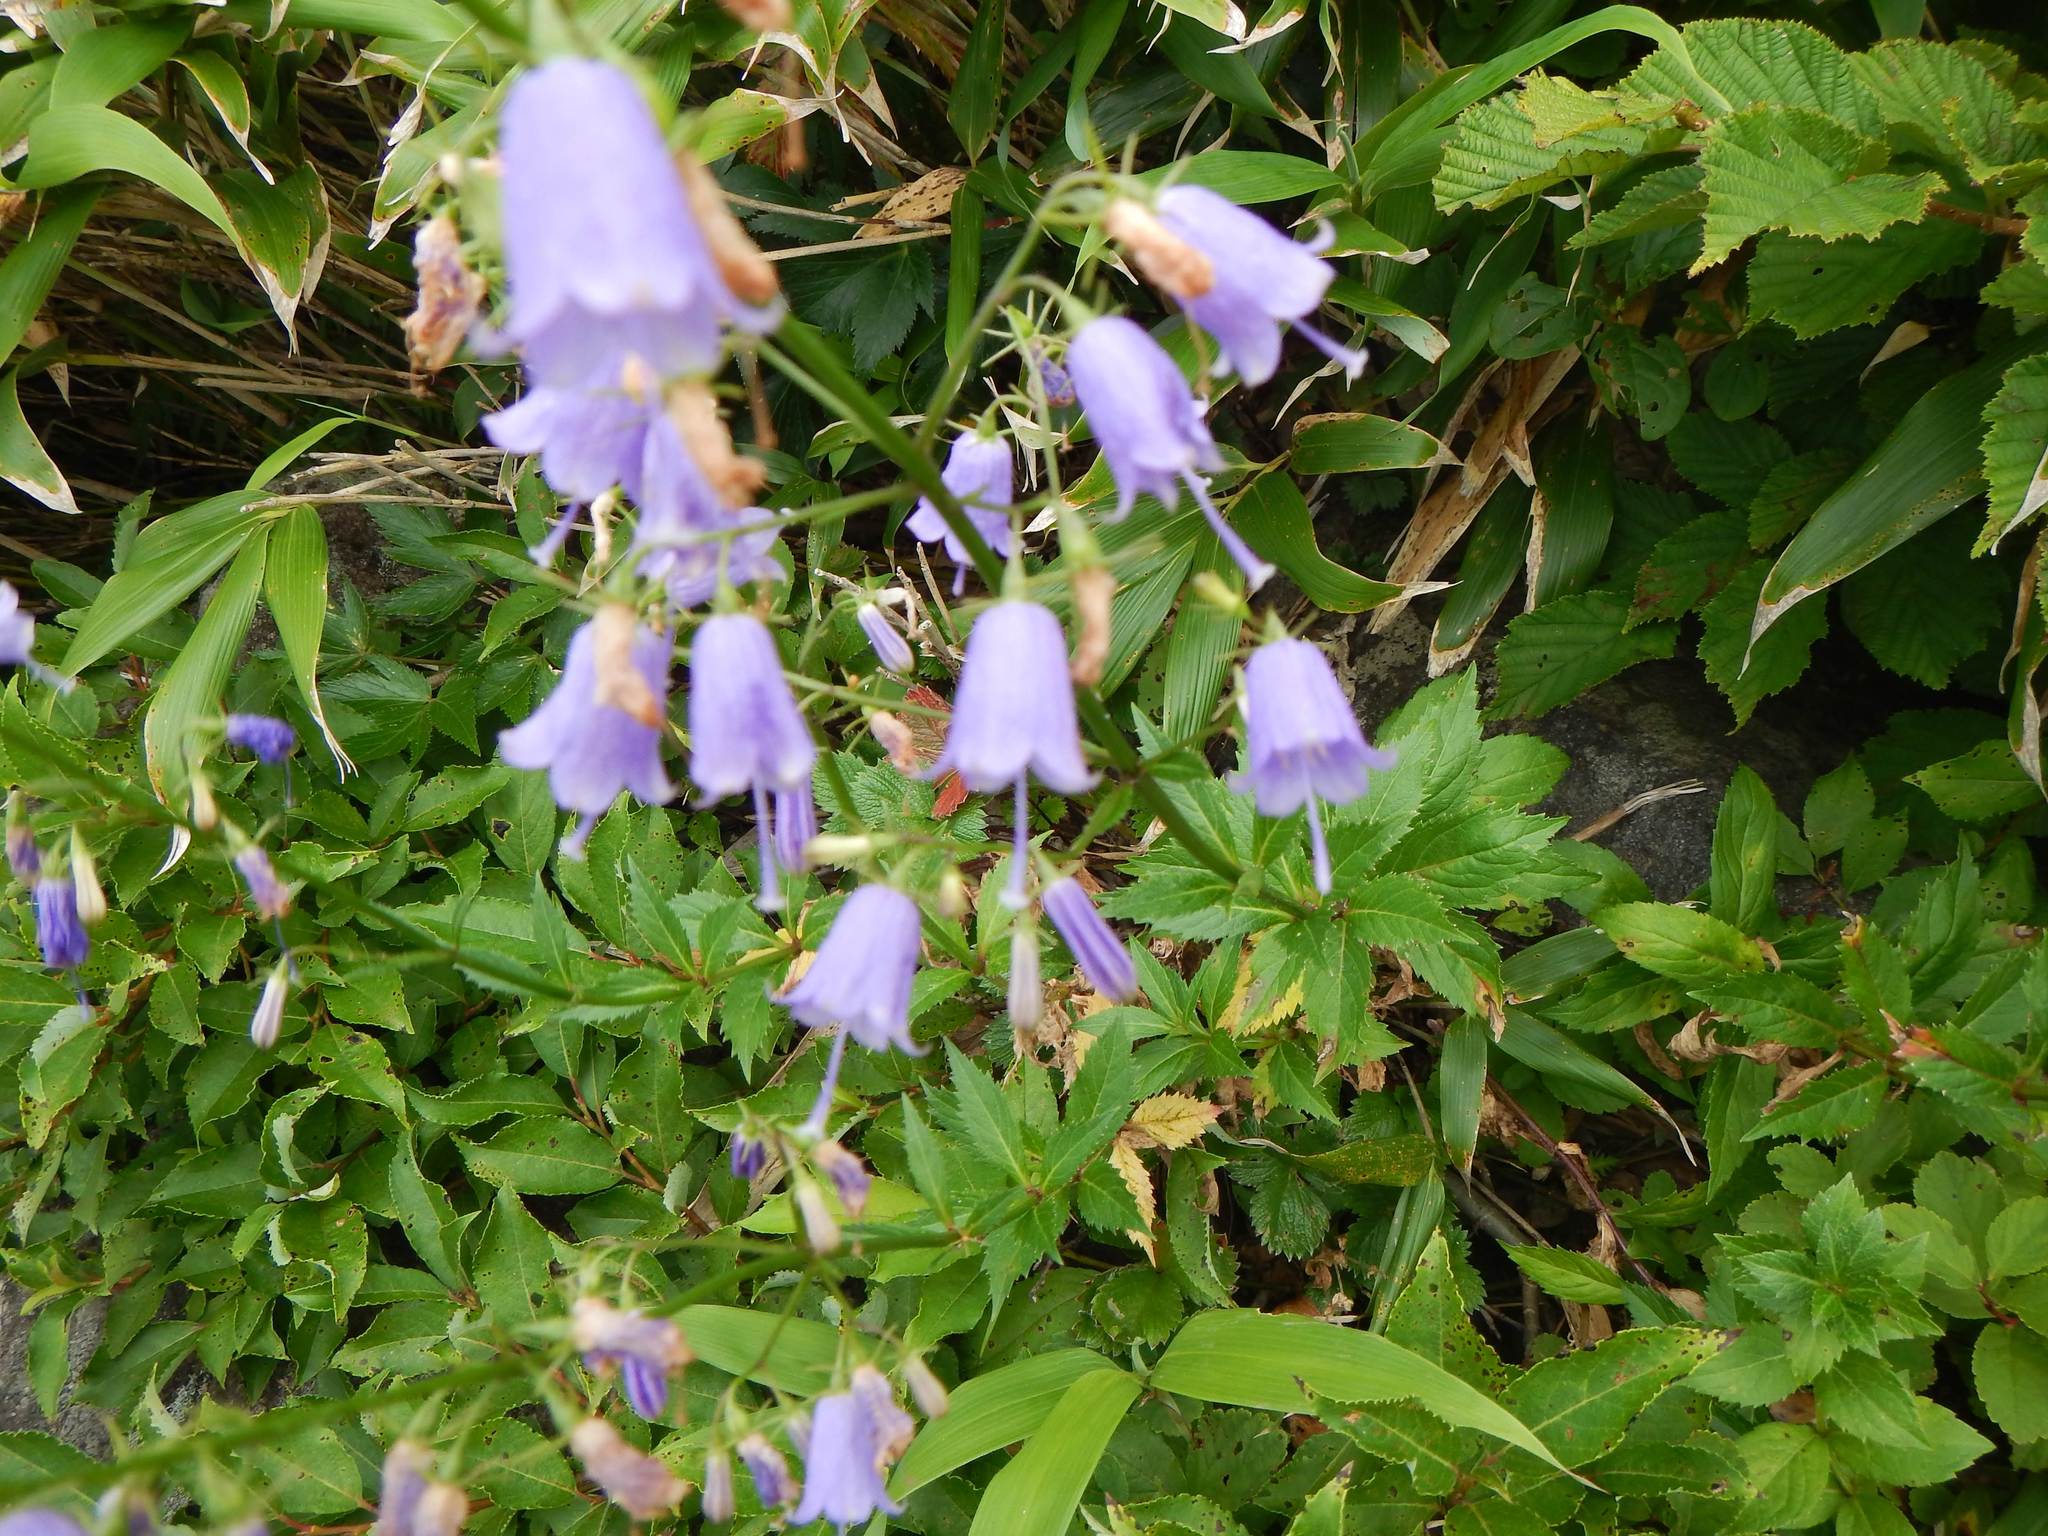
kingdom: Plantae
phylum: Tracheophyta
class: Magnoliopsida
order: Asterales
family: Campanulaceae
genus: Adenophora
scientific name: Adenophora triphylla
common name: Giant-bellflower
